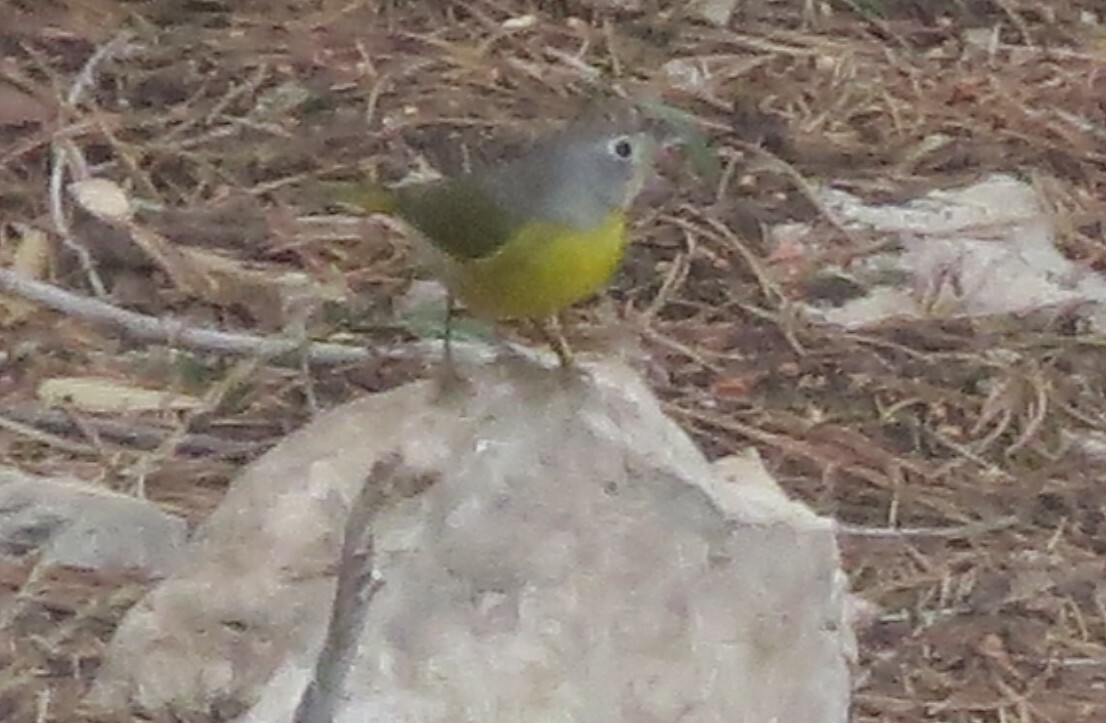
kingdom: Animalia
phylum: Chordata
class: Aves
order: Passeriformes
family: Parulidae
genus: Leiothlypis
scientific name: Leiothlypis ruficapilla
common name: Nashville warbler
